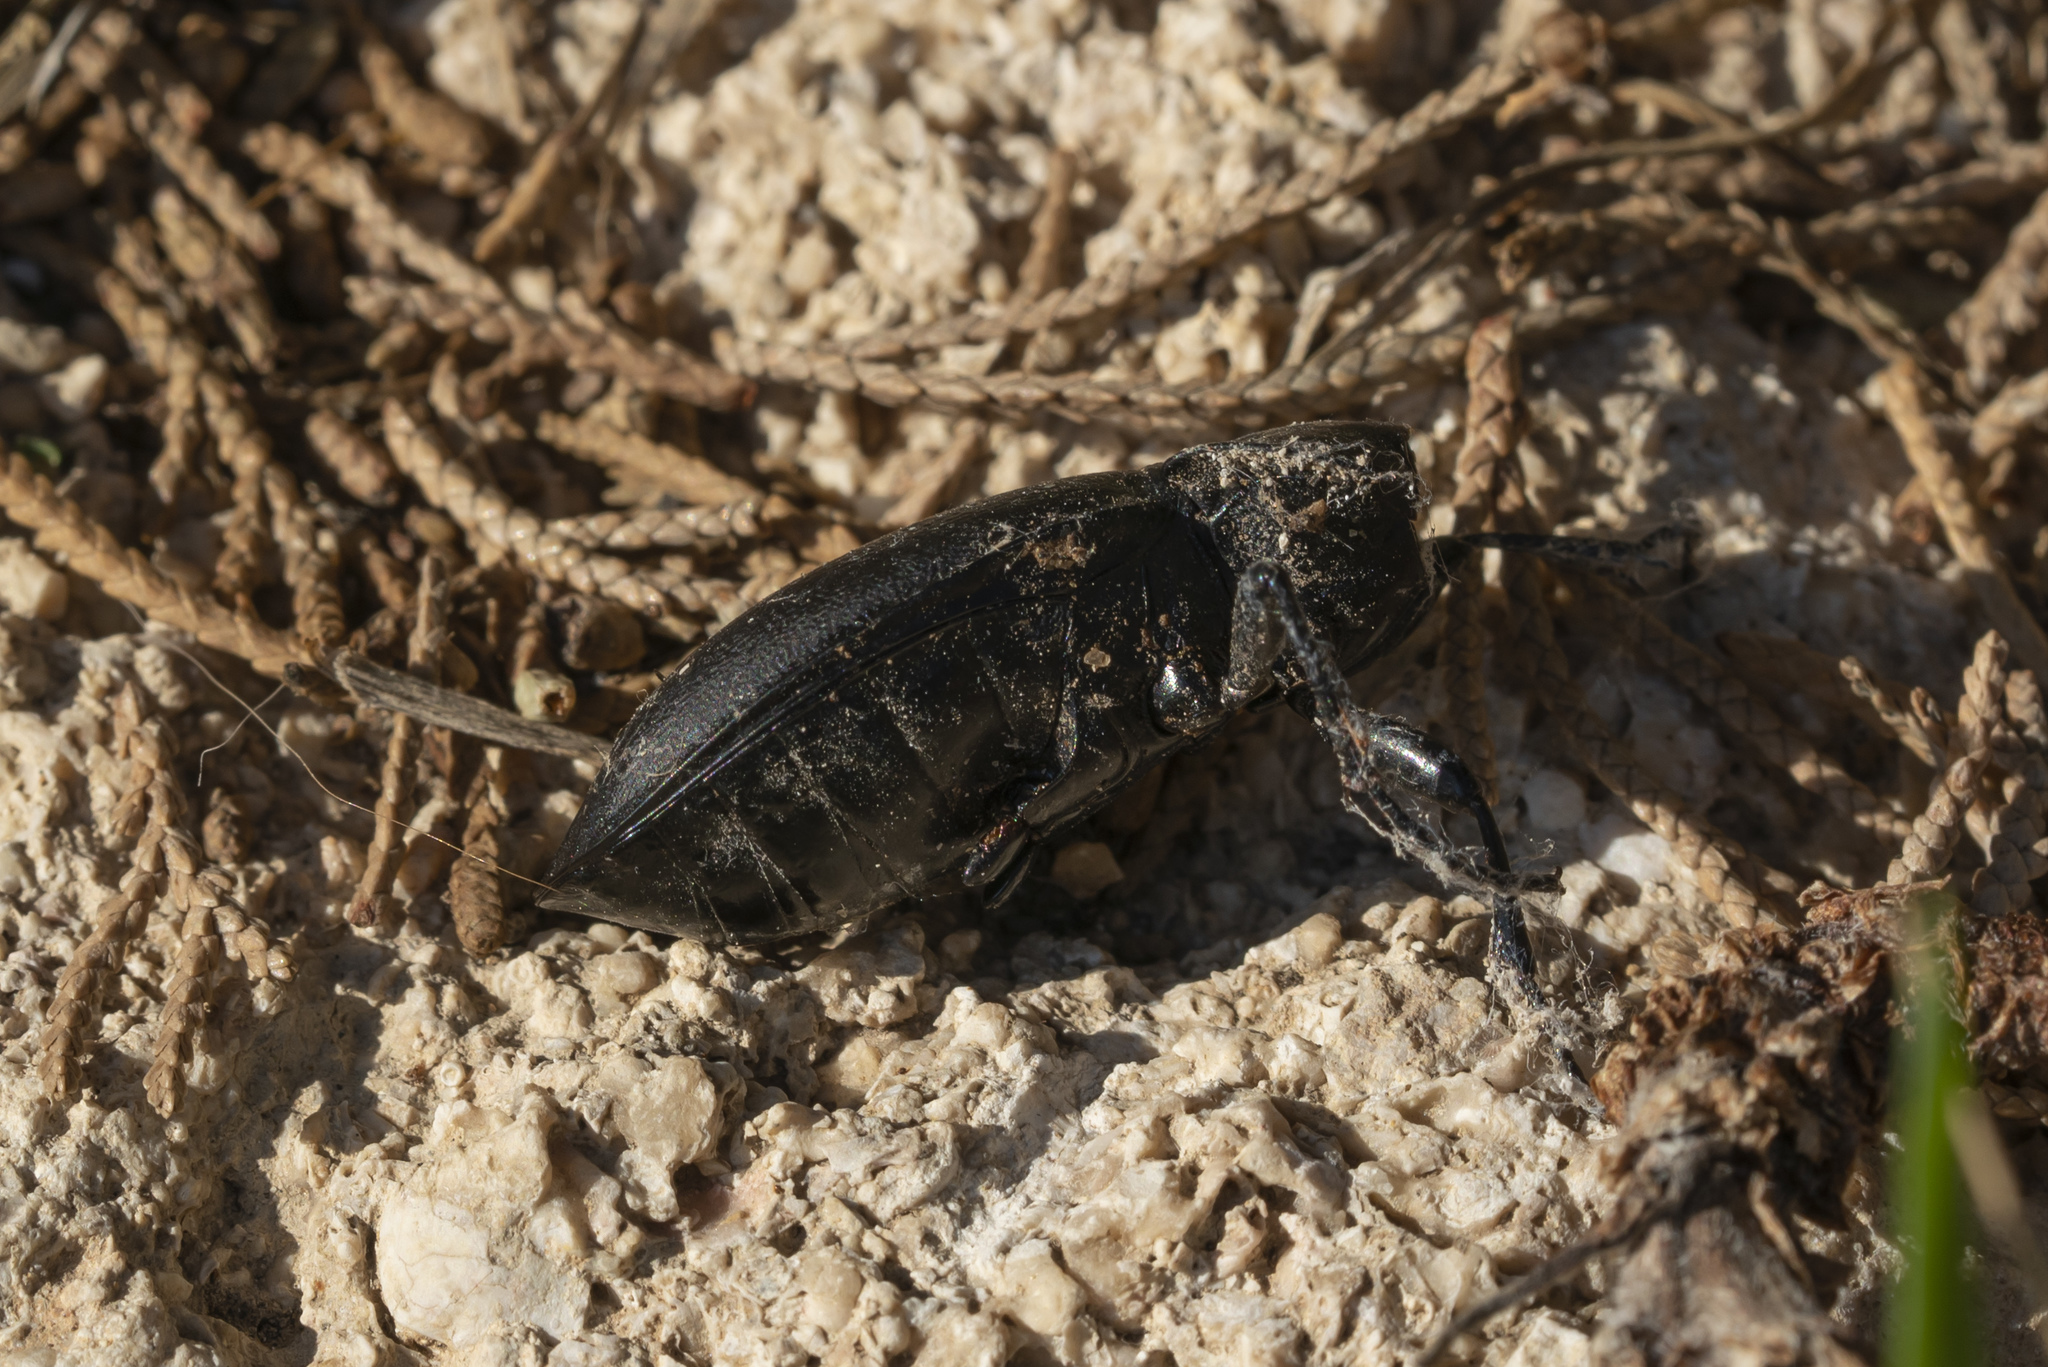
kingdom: Animalia
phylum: Arthropoda
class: Insecta
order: Coleoptera
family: Carabidae
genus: Carabus
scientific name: Carabus coriaceus
